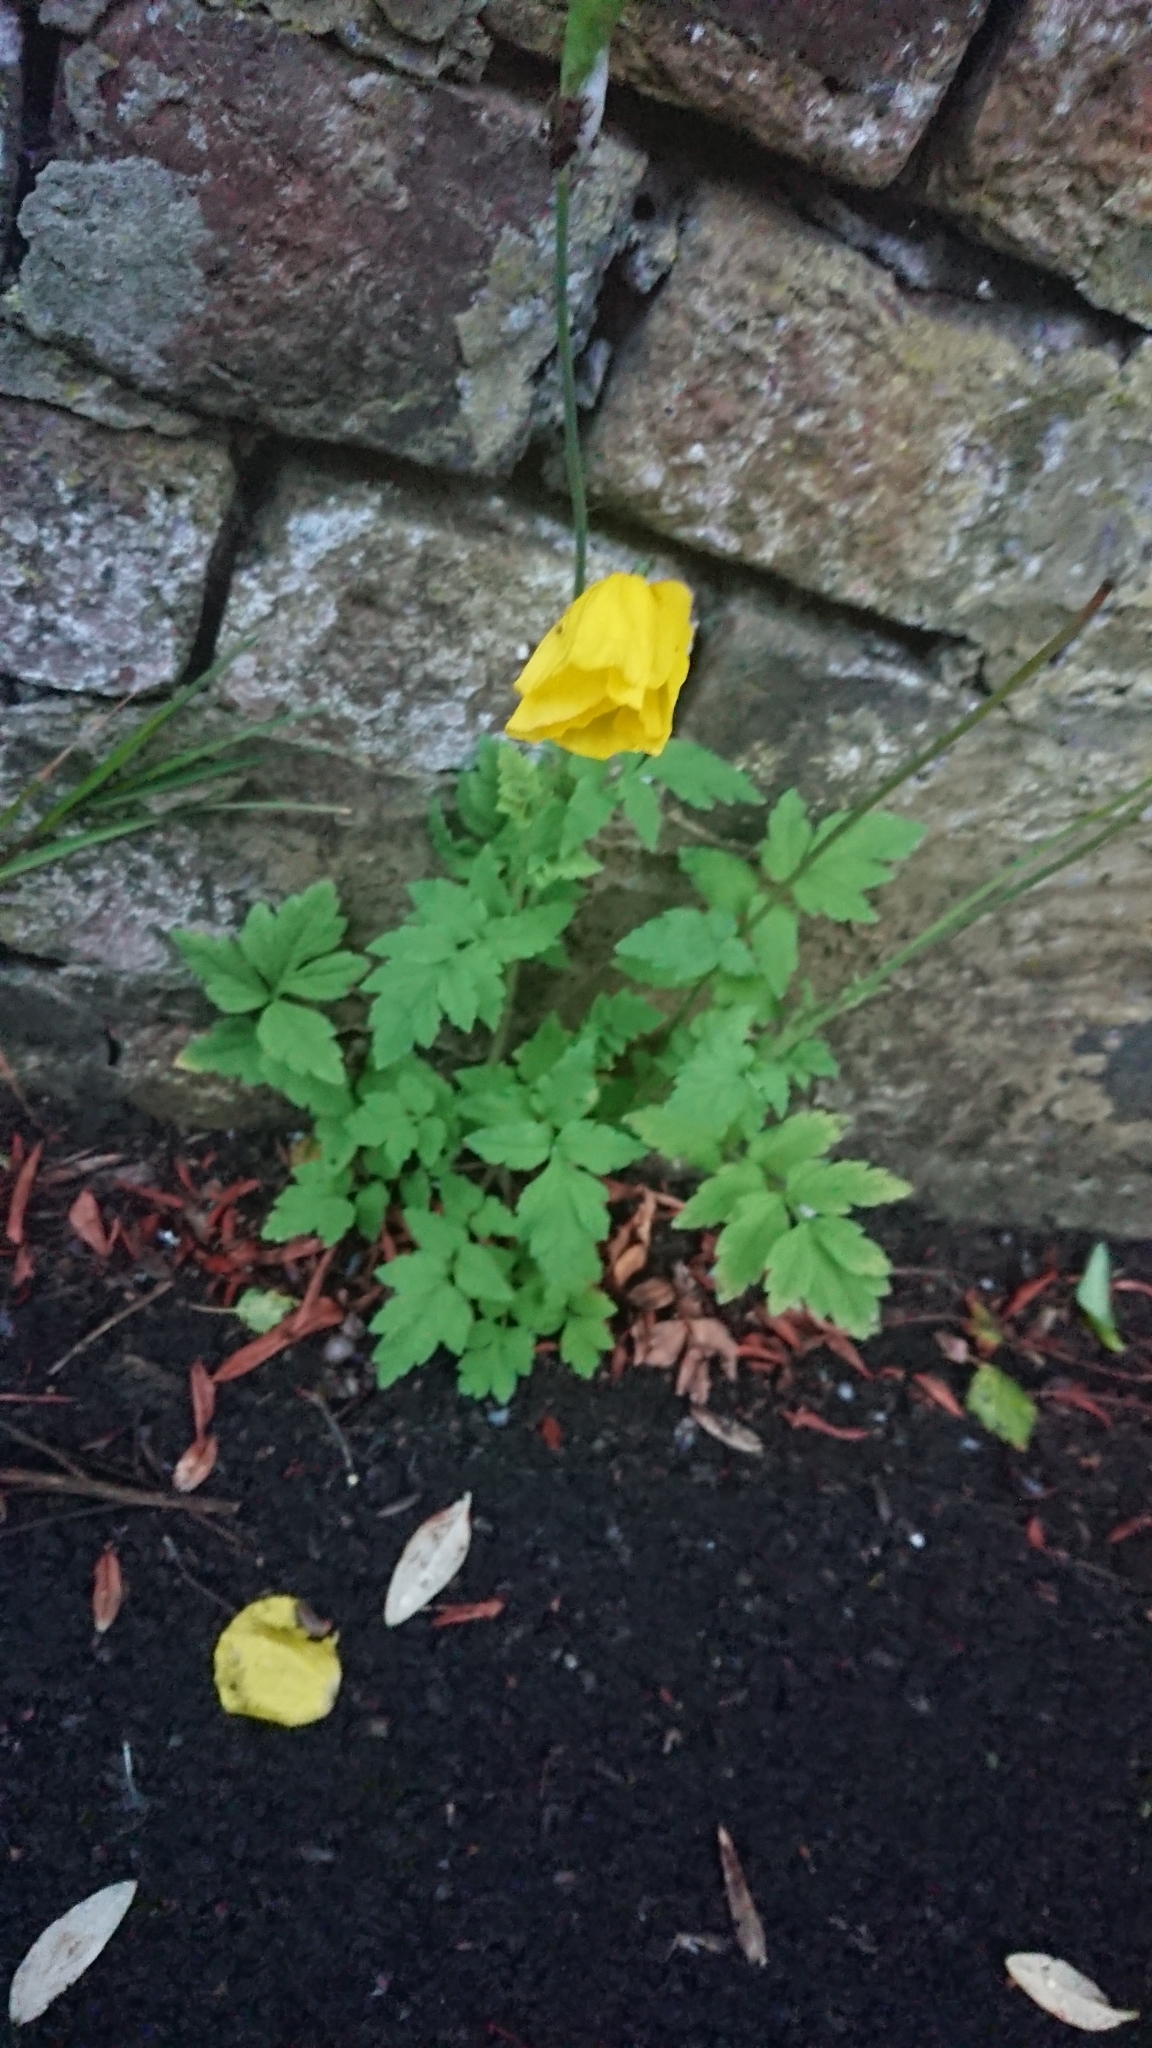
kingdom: Plantae
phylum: Tracheophyta
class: Magnoliopsida
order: Ranunculales
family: Papaveraceae
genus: Papaver
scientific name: Papaver cambricum
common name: Poppy
